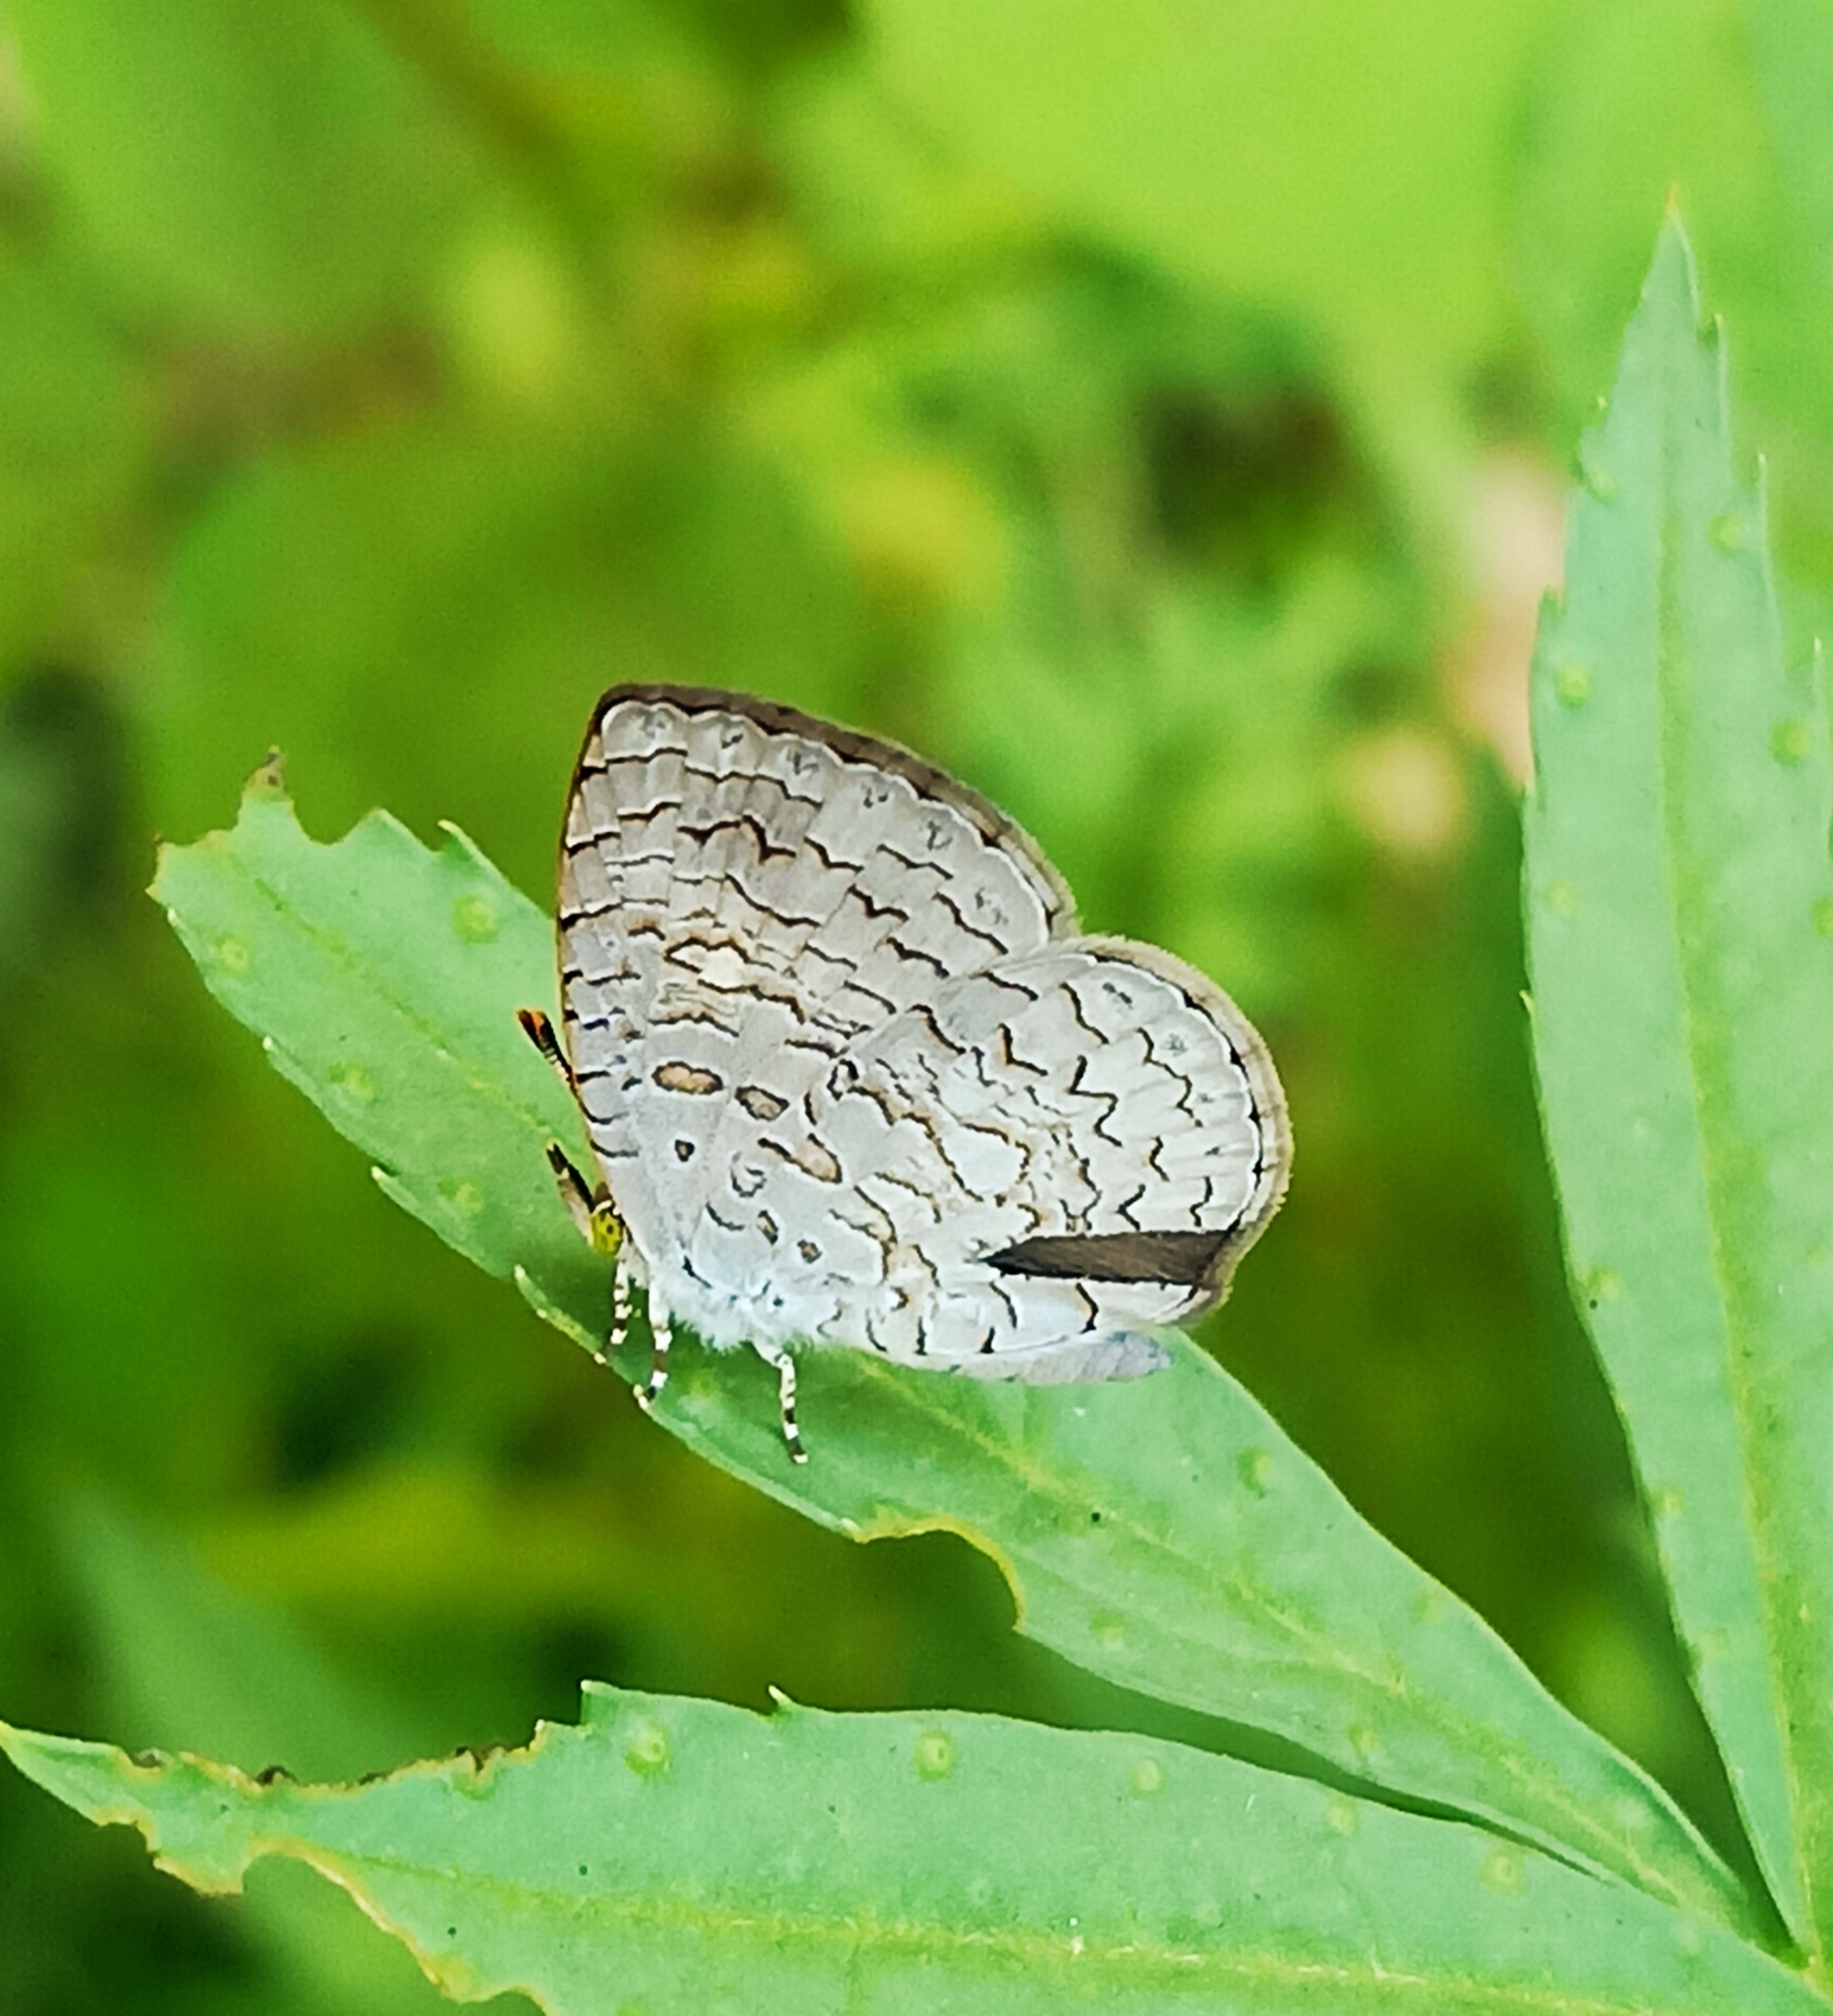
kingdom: Animalia
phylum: Arthropoda
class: Insecta
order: Lepidoptera
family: Lycaenidae
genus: Spalgis
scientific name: Spalgis epius
